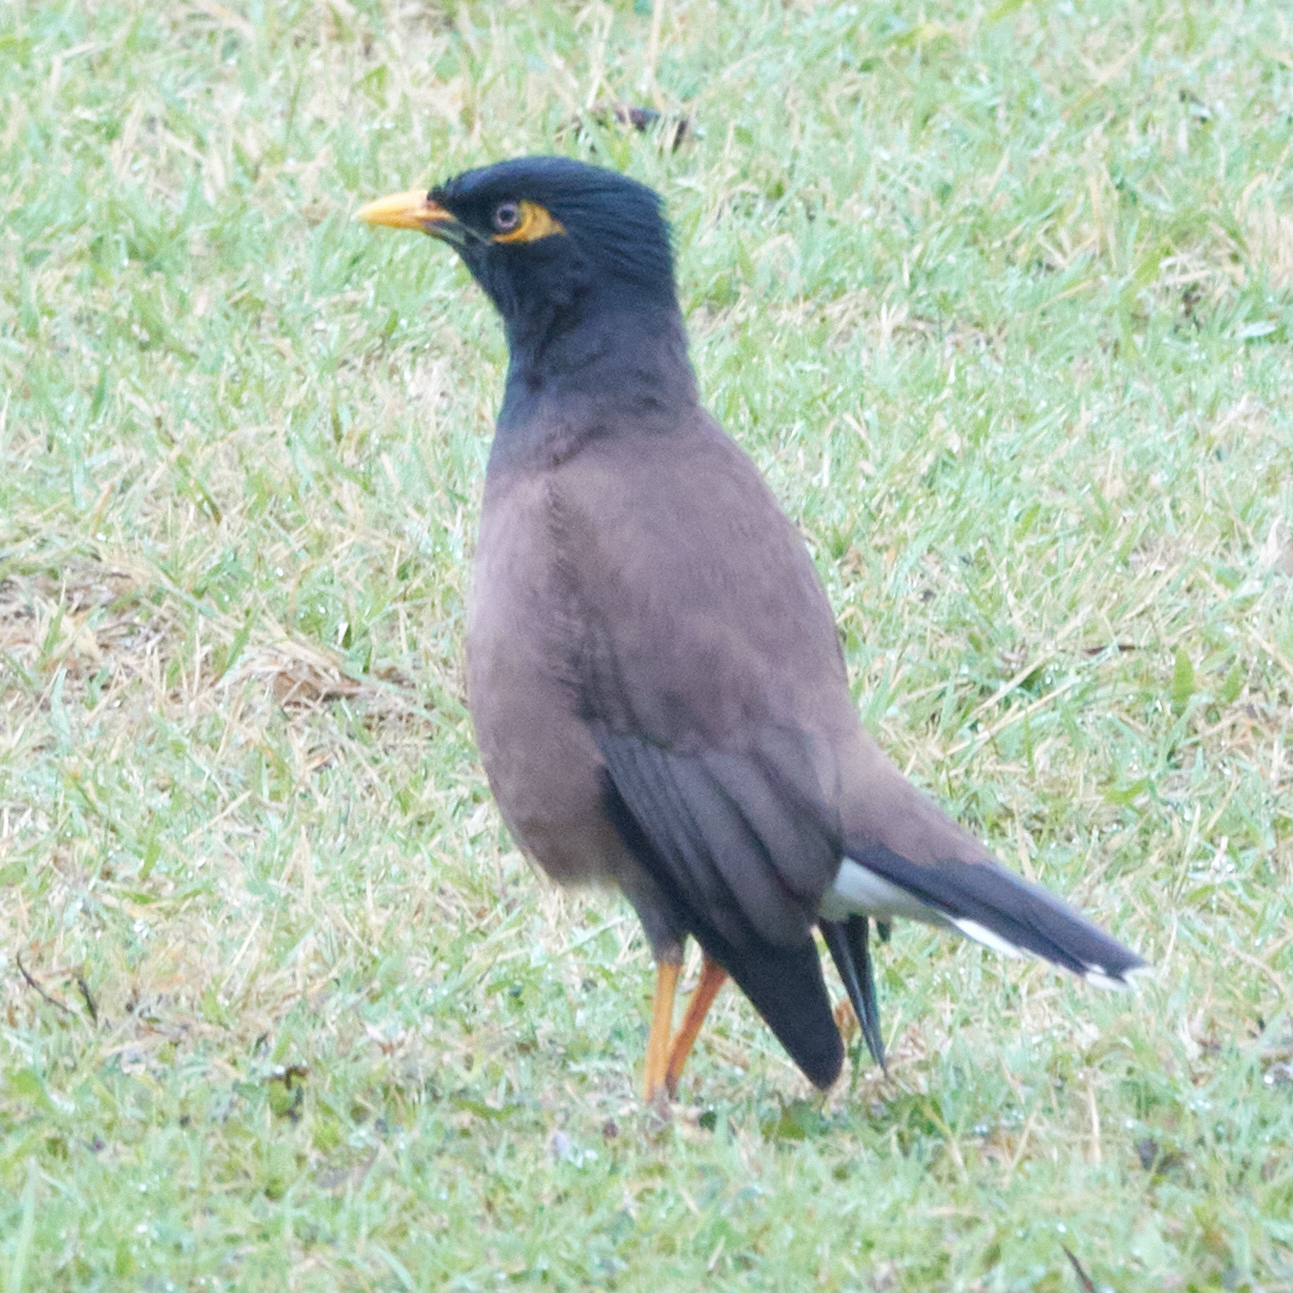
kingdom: Animalia
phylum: Chordata
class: Aves
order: Passeriformes
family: Sturnidae
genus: Acridotheres
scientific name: Acridotheres tristis
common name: Common myna
